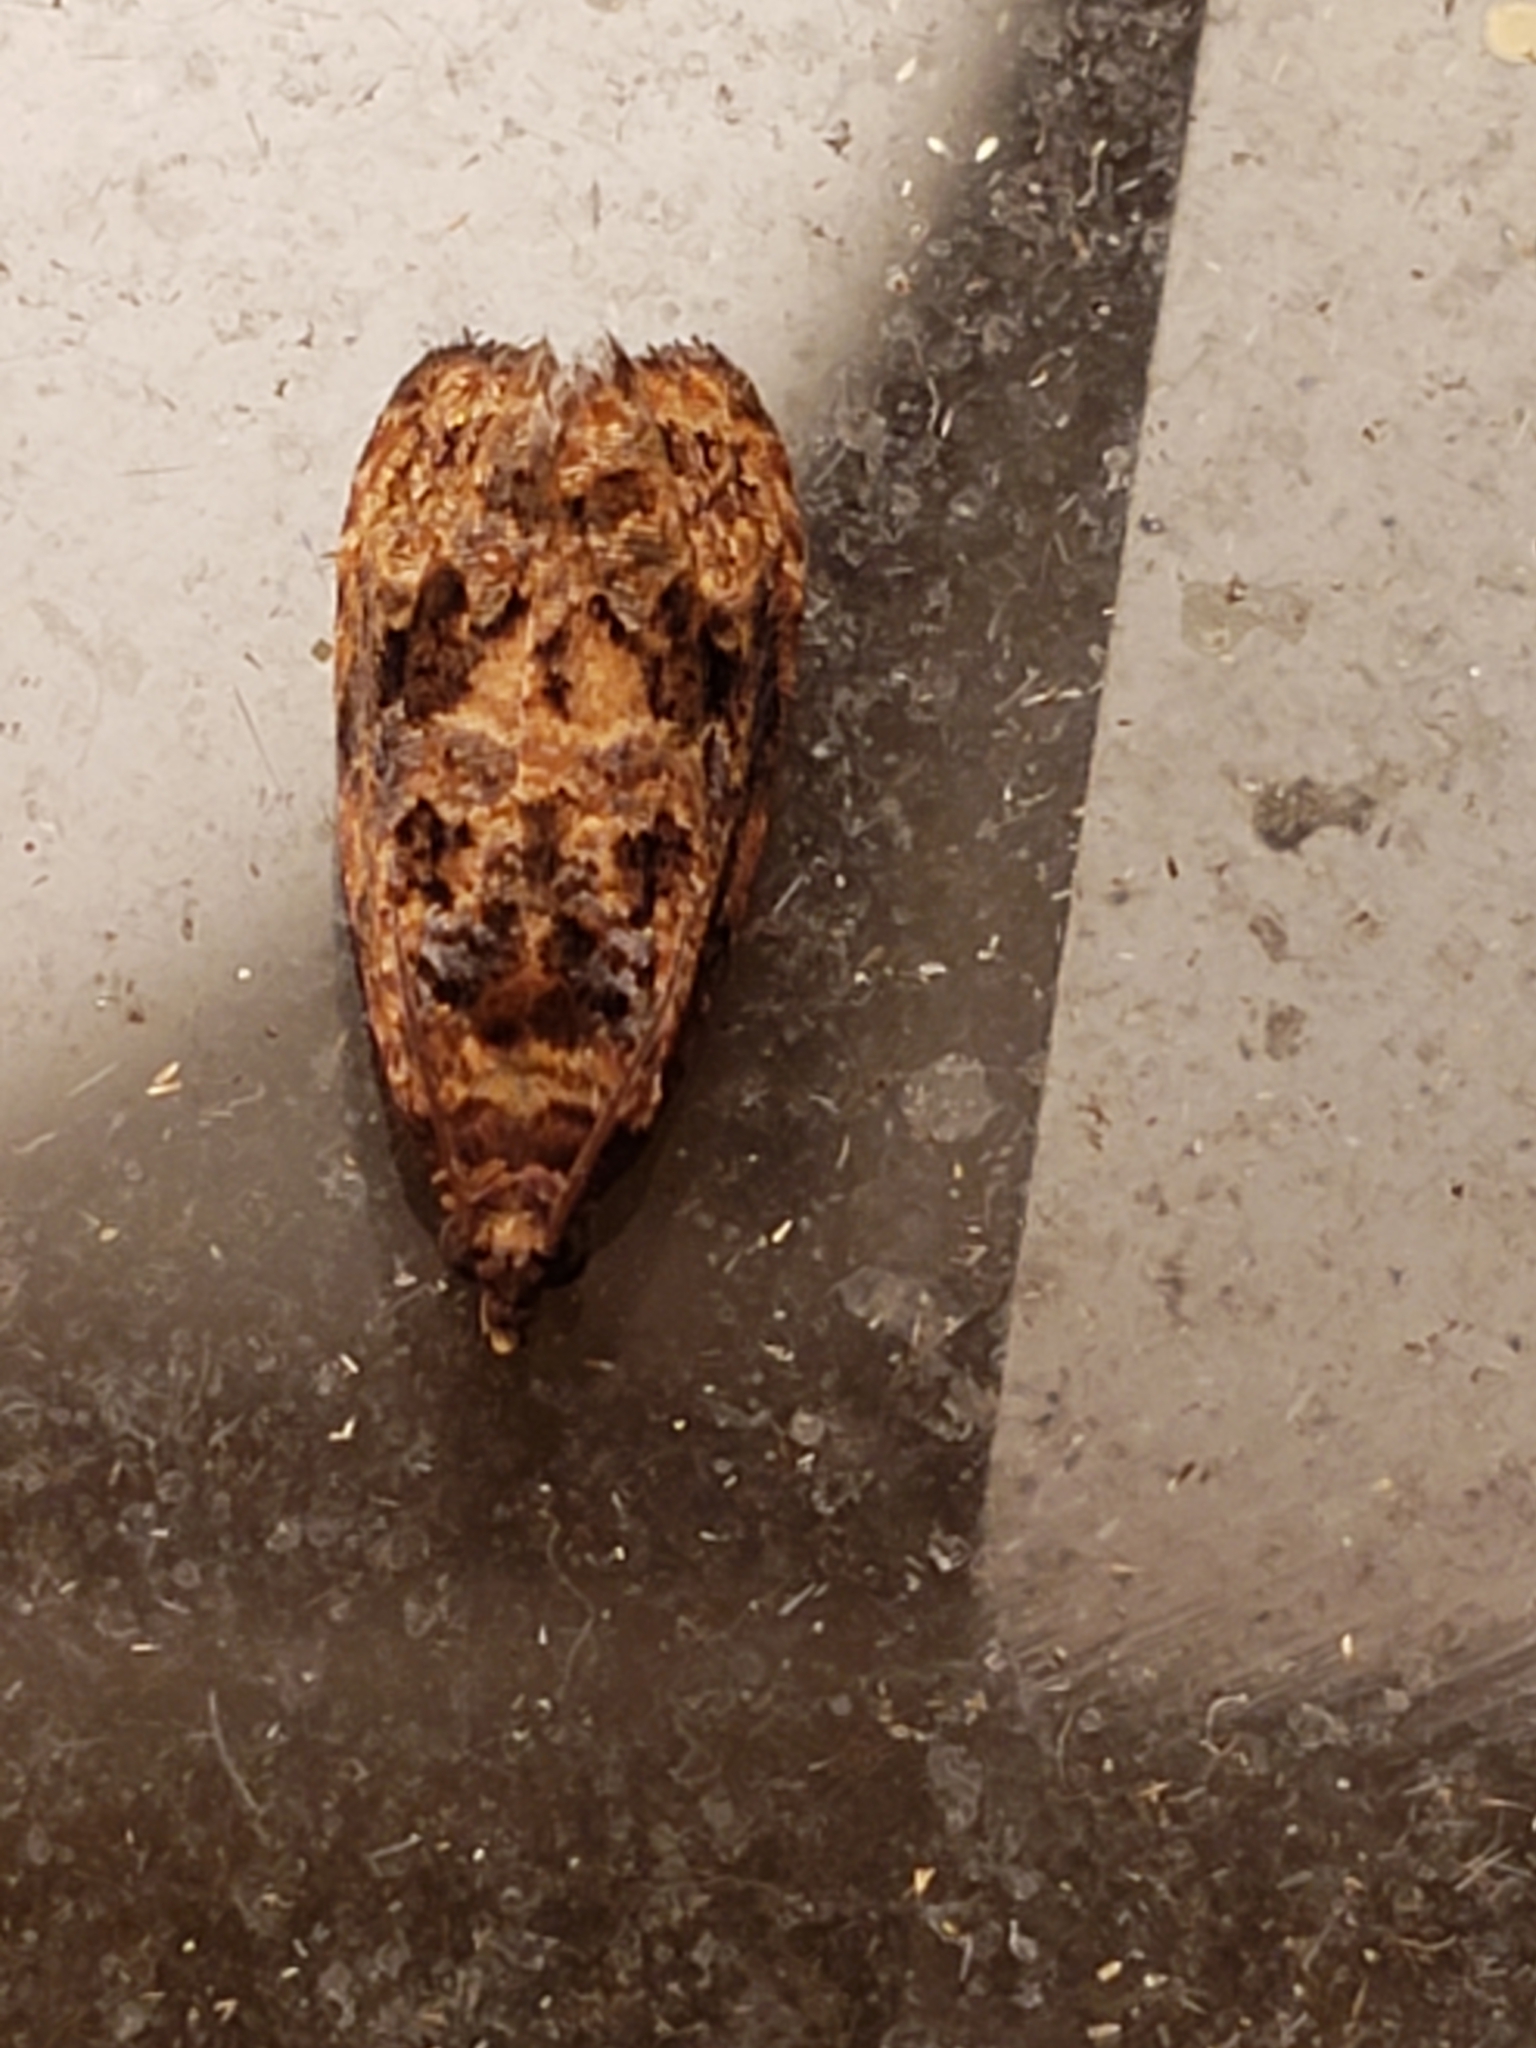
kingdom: Animalia
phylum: Arthropoda
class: Insecta
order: Lepidoptera
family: Tortricidae
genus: Endothenia
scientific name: Endothenia hebesana
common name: Verbena bud moth
